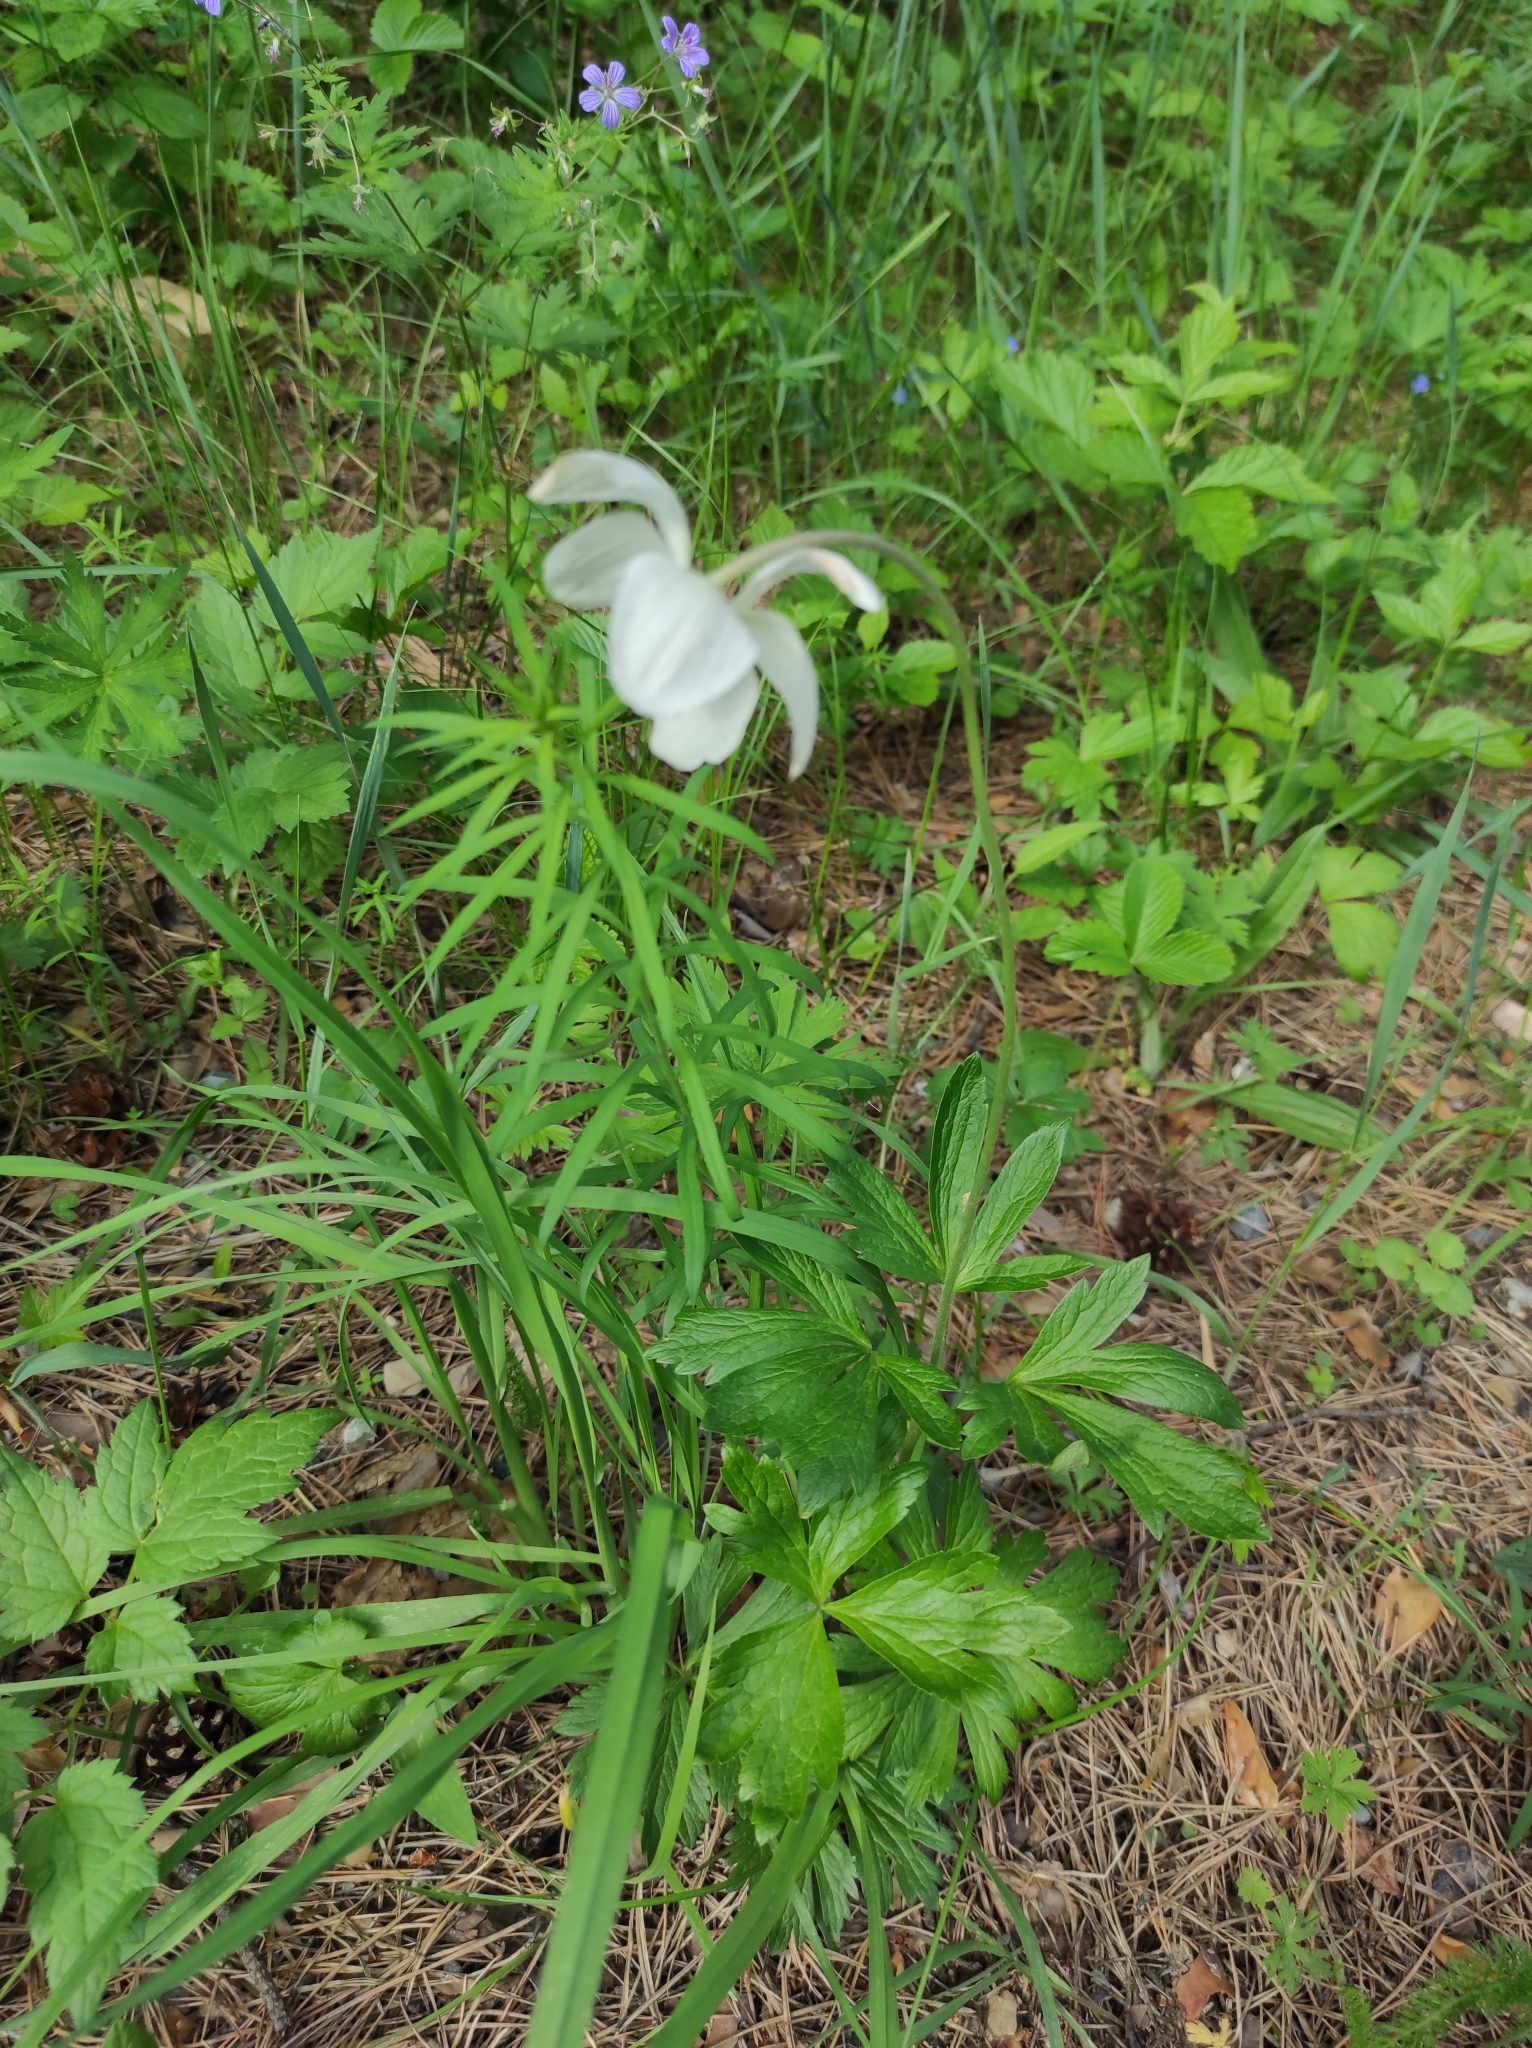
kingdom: Plantae
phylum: Tracheophyta
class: Magnoliopsida
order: Ranunculales
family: Ranunculaceae
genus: Anemone
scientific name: Anemone sylvestris
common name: Snowdrop anemone
